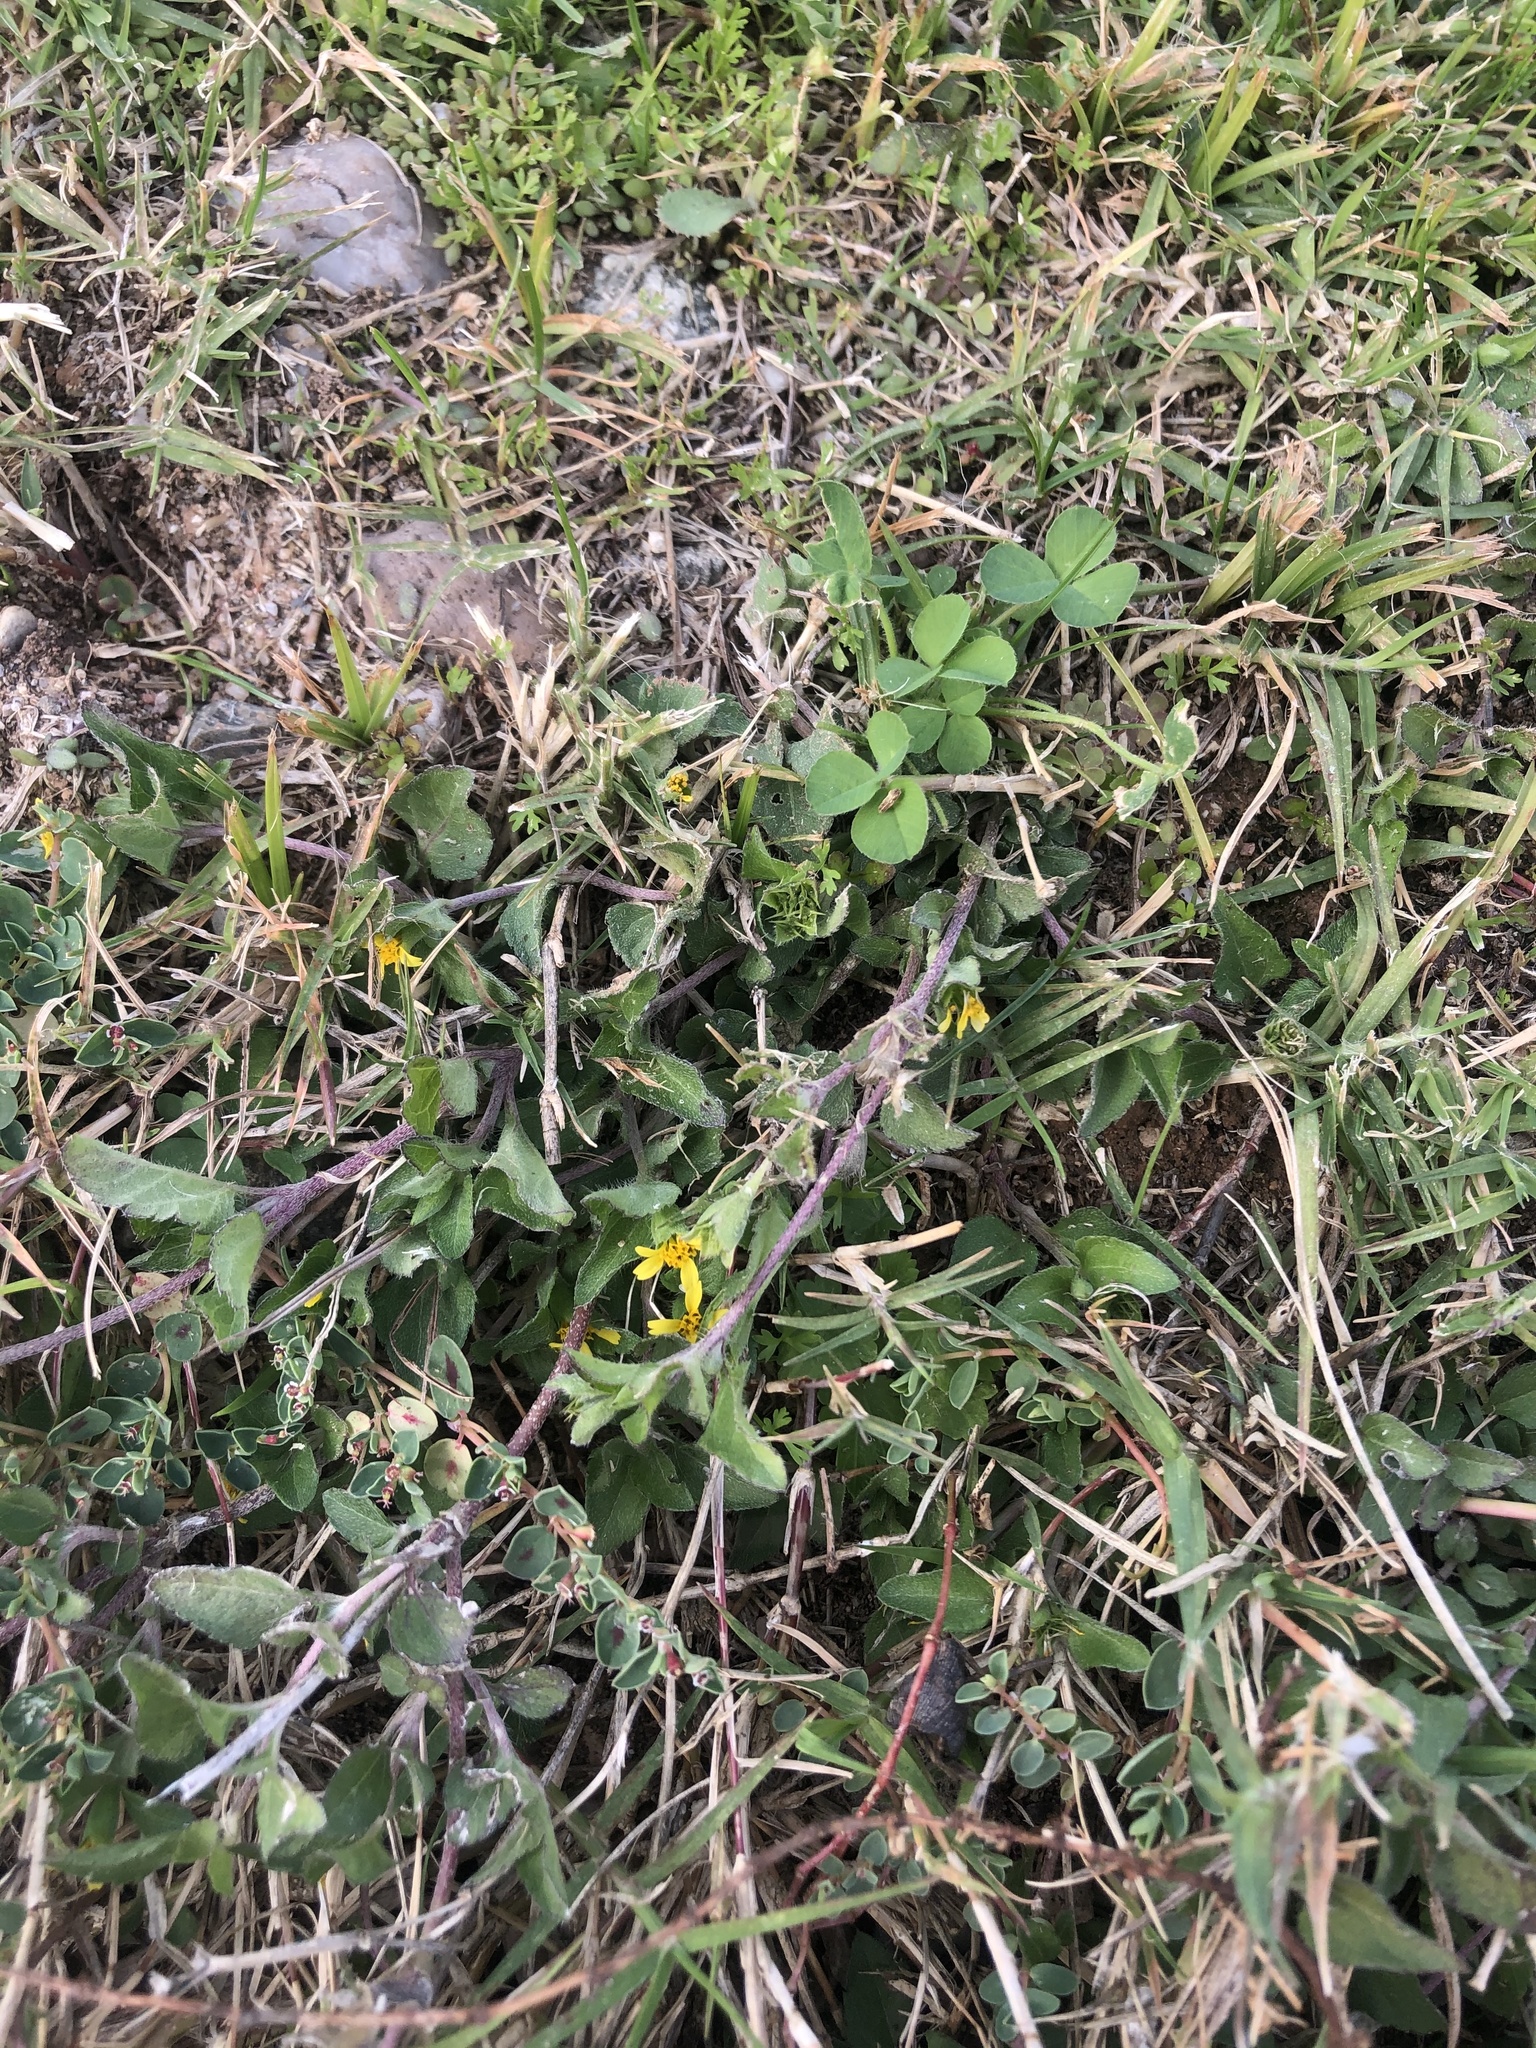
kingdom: Plantae
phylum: Tracheophyta
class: Magnoliopsida
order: Asterales
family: Asteraceae
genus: Calyptocarpus
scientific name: Calyptocarpus vialis
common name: Straggler daisy
